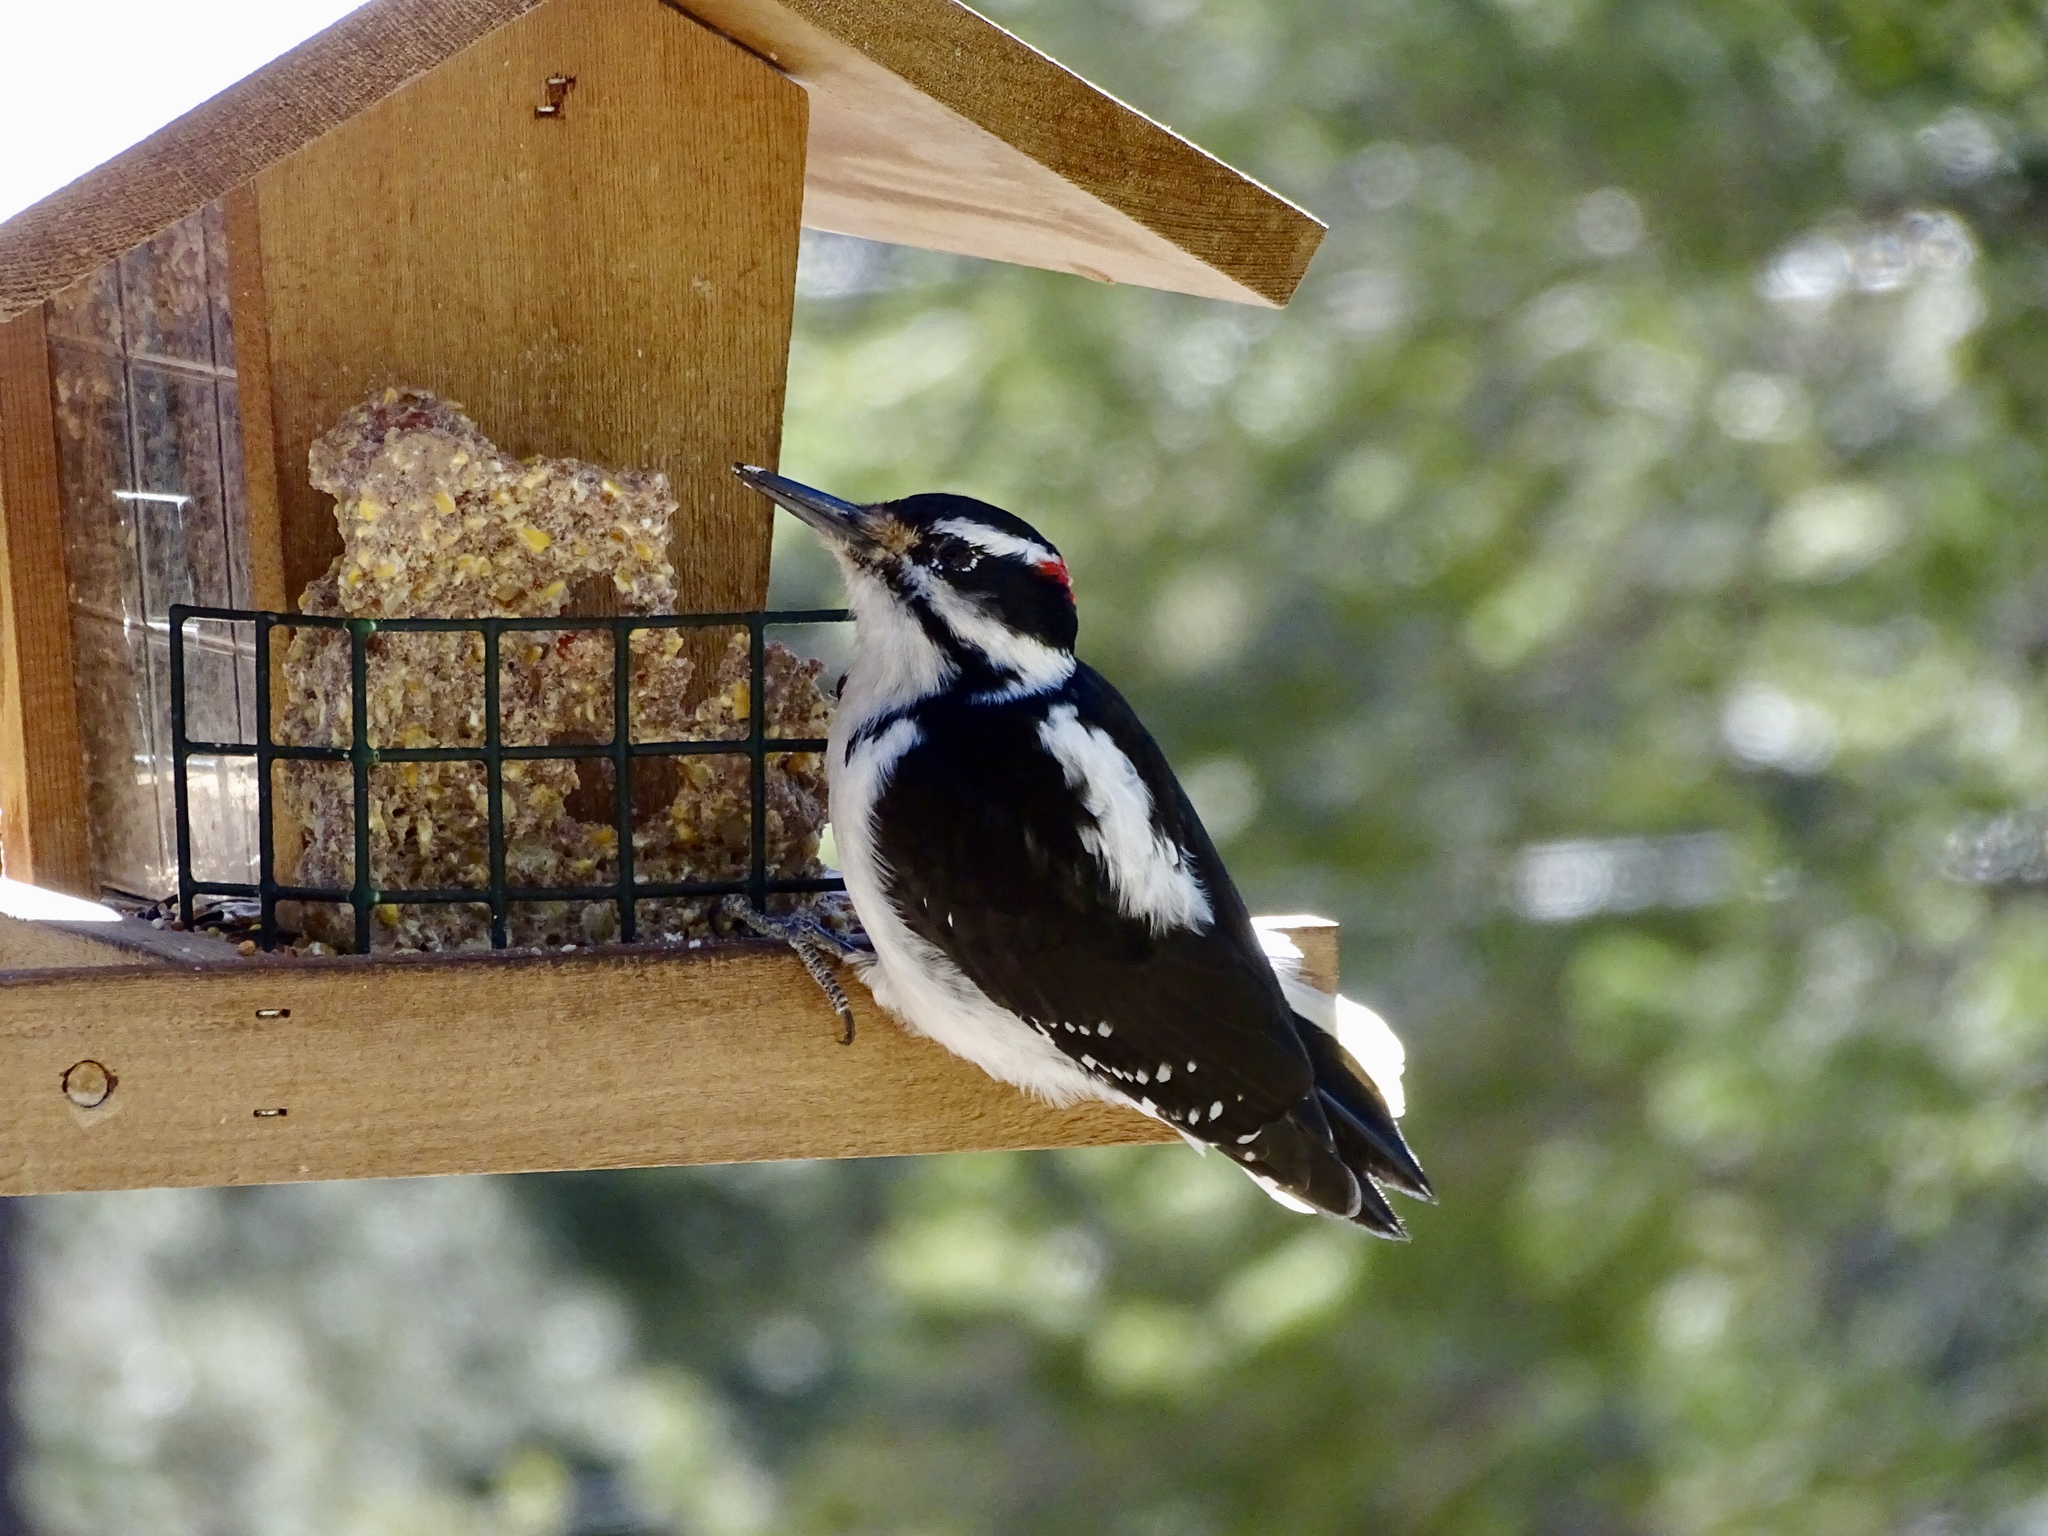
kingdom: Animalia
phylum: Chordata
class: Aves
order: Piciformes
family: Picidae
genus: Leuconotopicus
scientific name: Leuconotopicus villosus
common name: Hairy woodpecker
